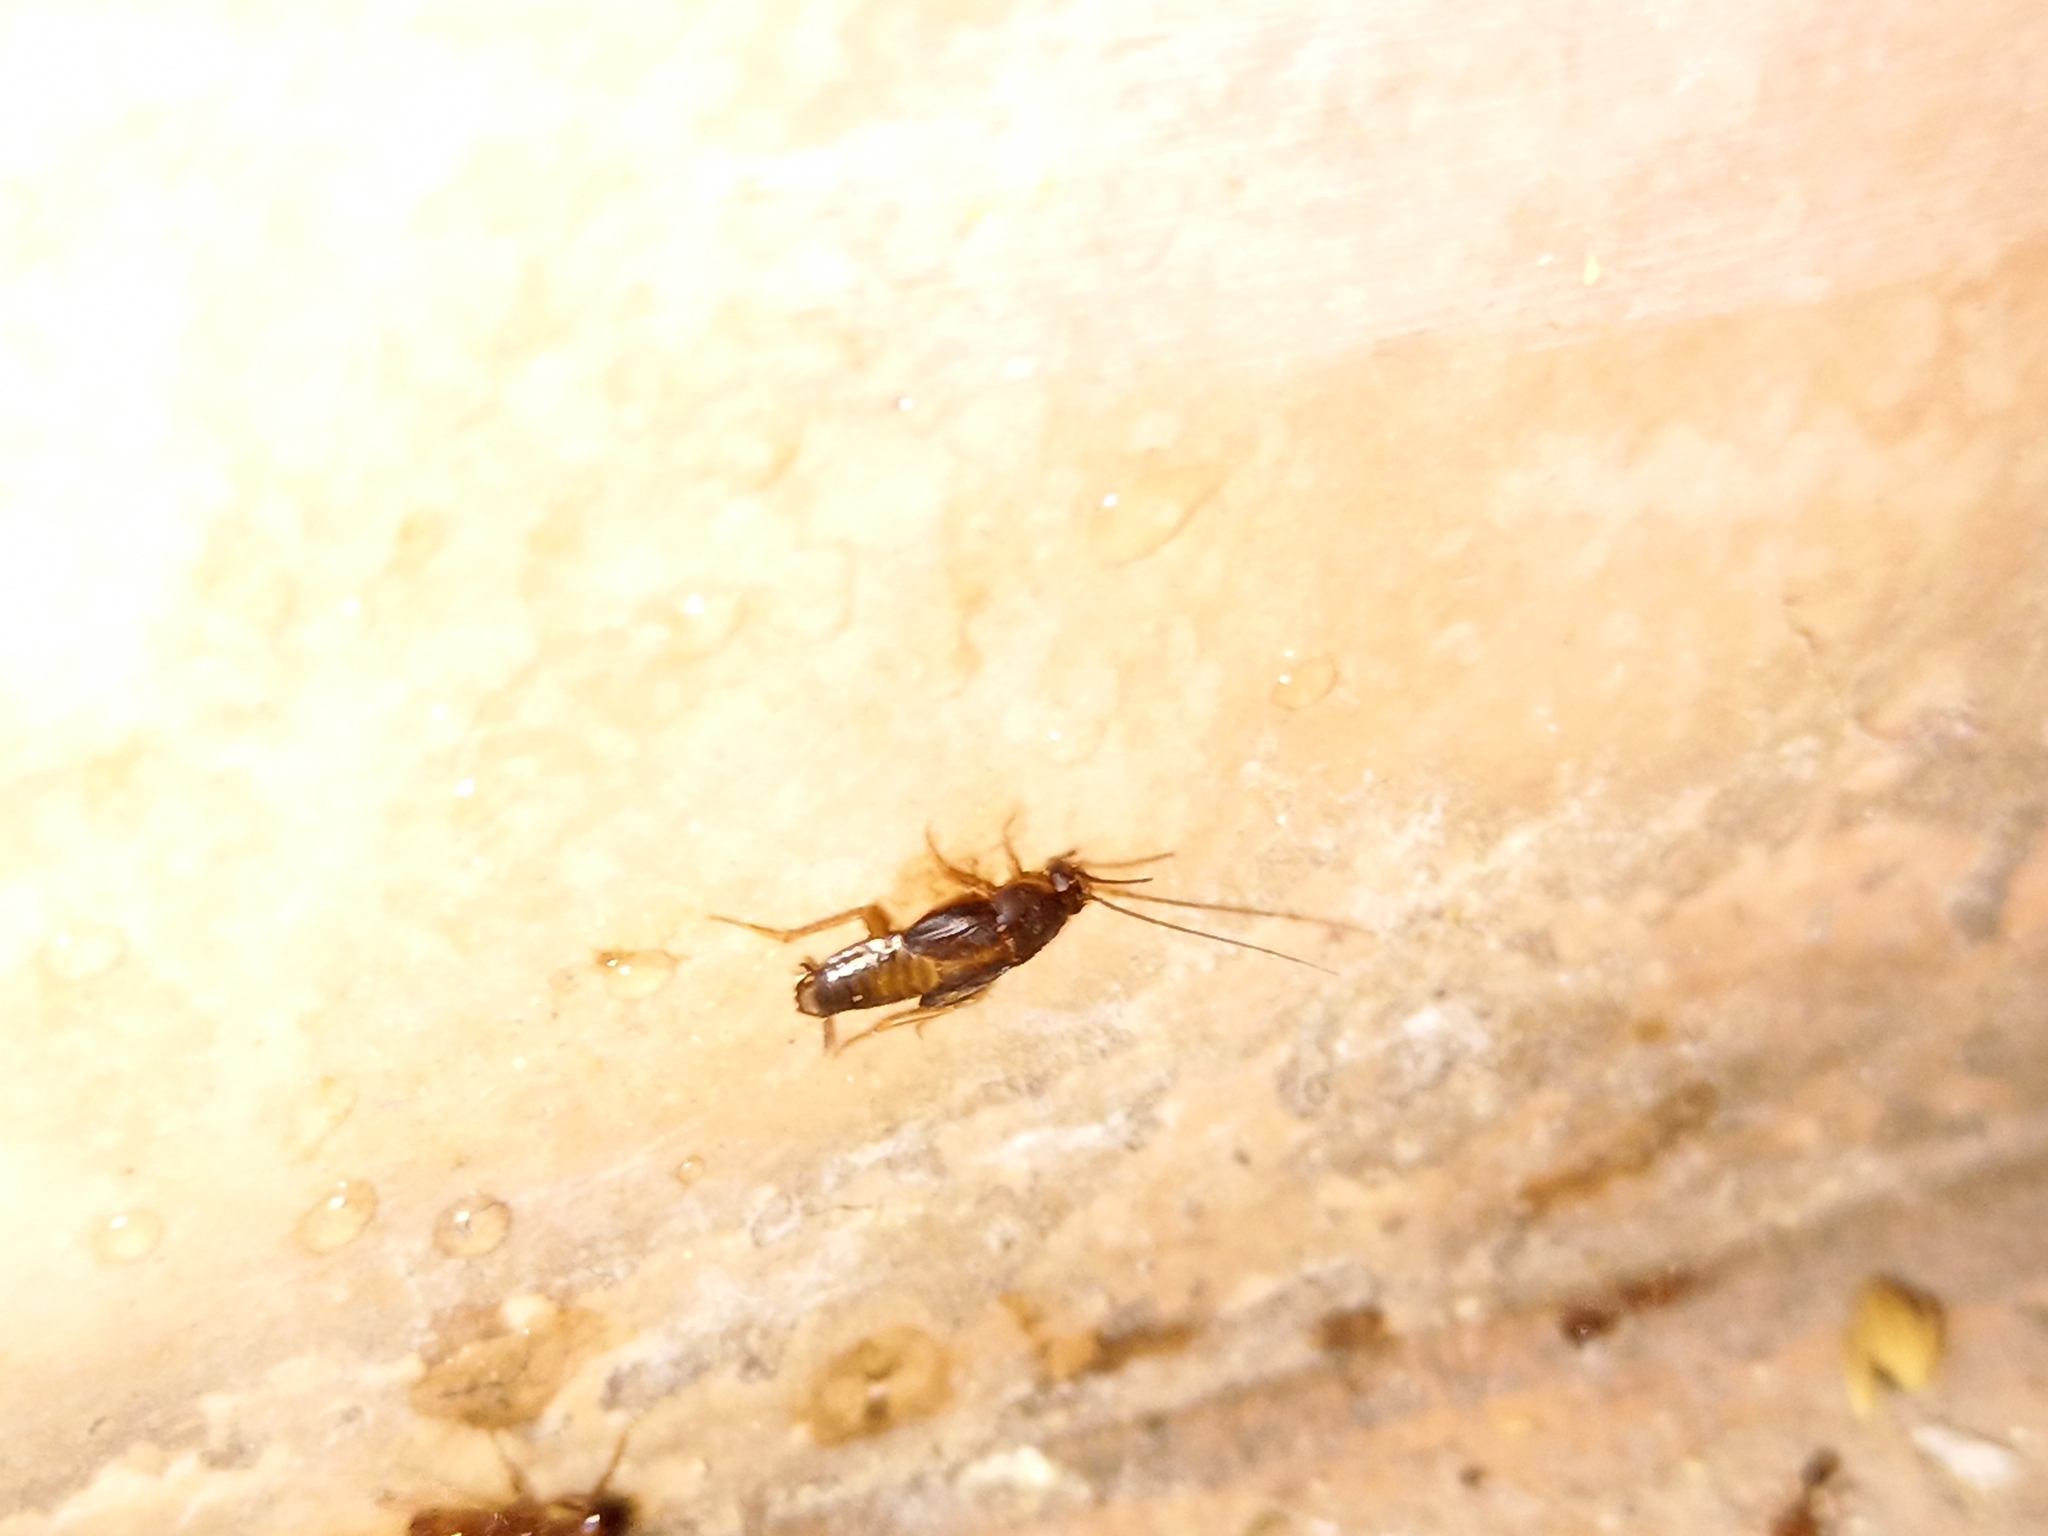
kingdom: Animalia
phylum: Arthropoda
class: Insecta
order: Blattodea
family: Corydiidae
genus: Myrmecoblatta
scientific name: Myrmecoblatta hebardi
